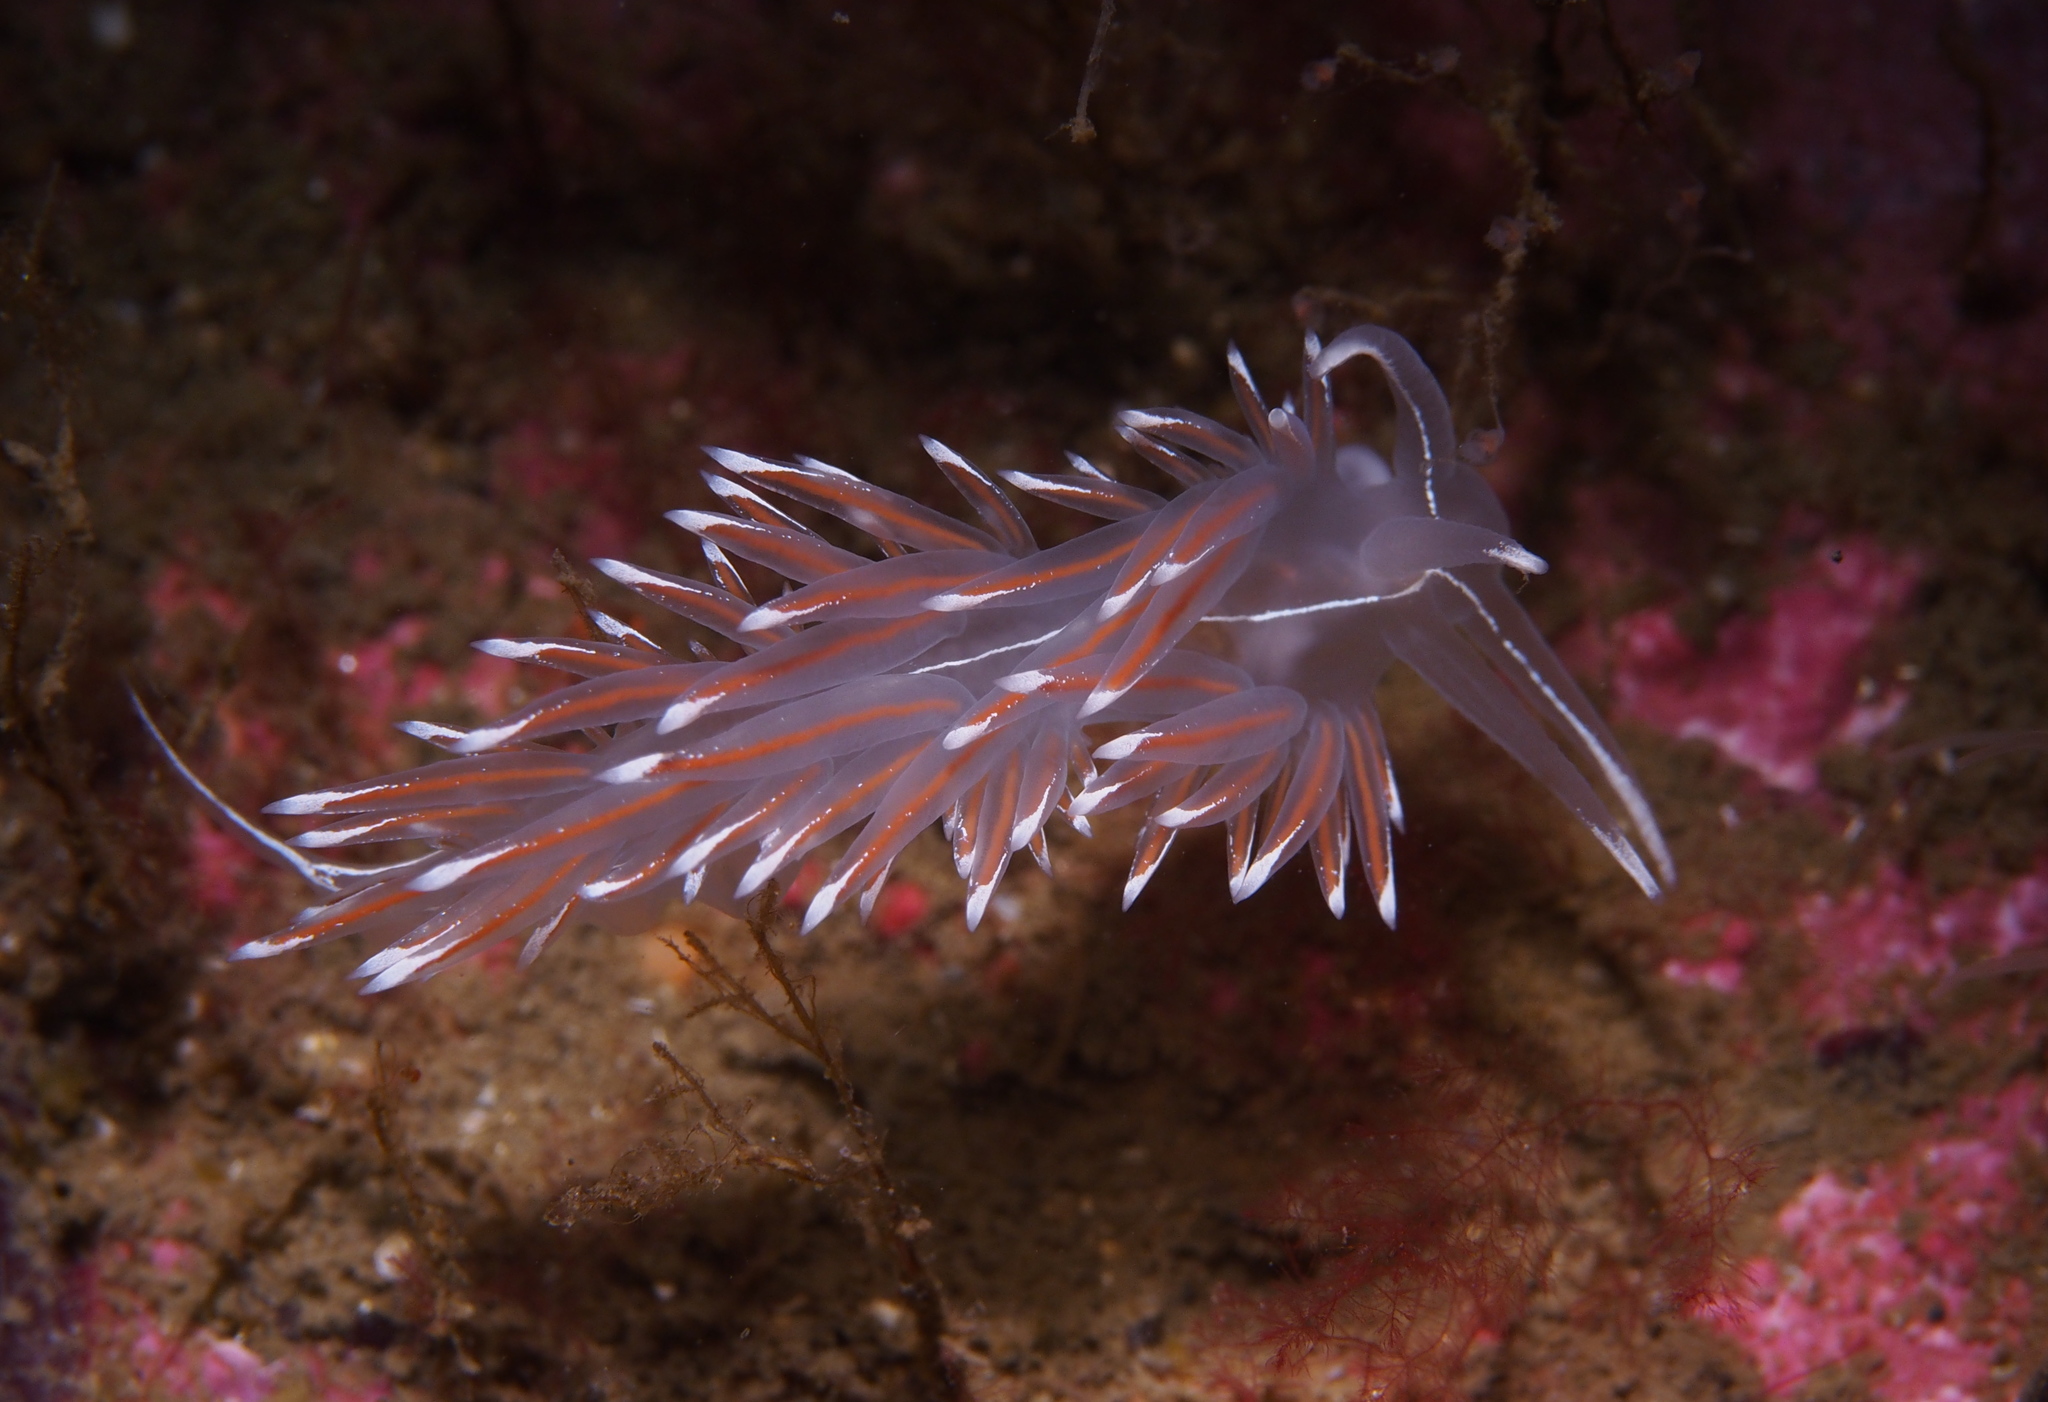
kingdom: Animalia
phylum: Mollusca
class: Gastropoda
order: Nudibranchia
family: Coryphellidae
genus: Coryphella
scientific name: Coryphella lineata
